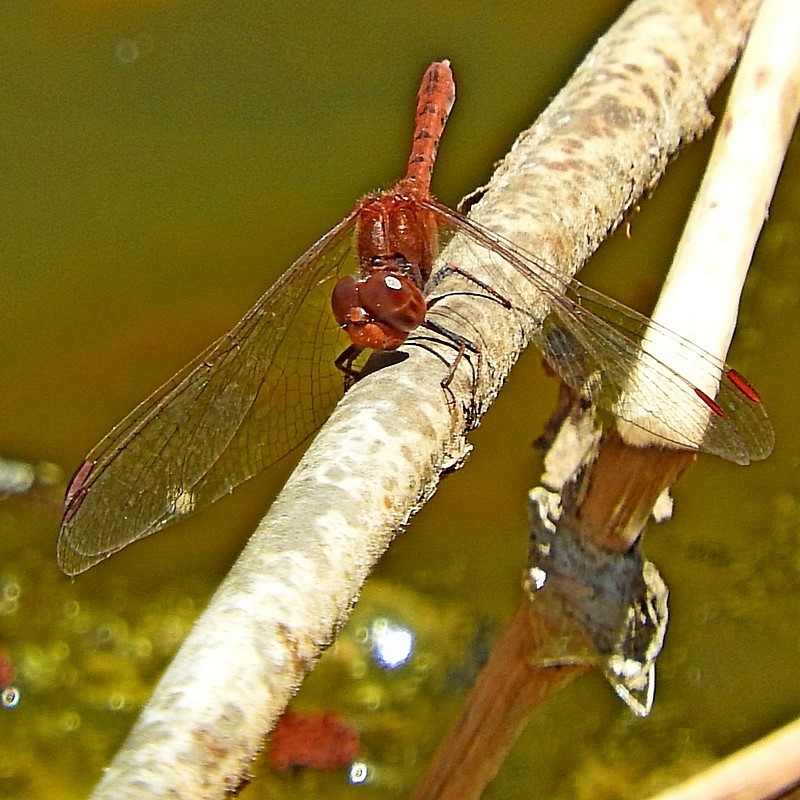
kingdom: Animalia
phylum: Arthropoda
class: Insecta
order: Odonata
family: Libellulidae
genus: Diplacodes
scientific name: Diplacodes bipunctata
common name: Red percher dragonfly
